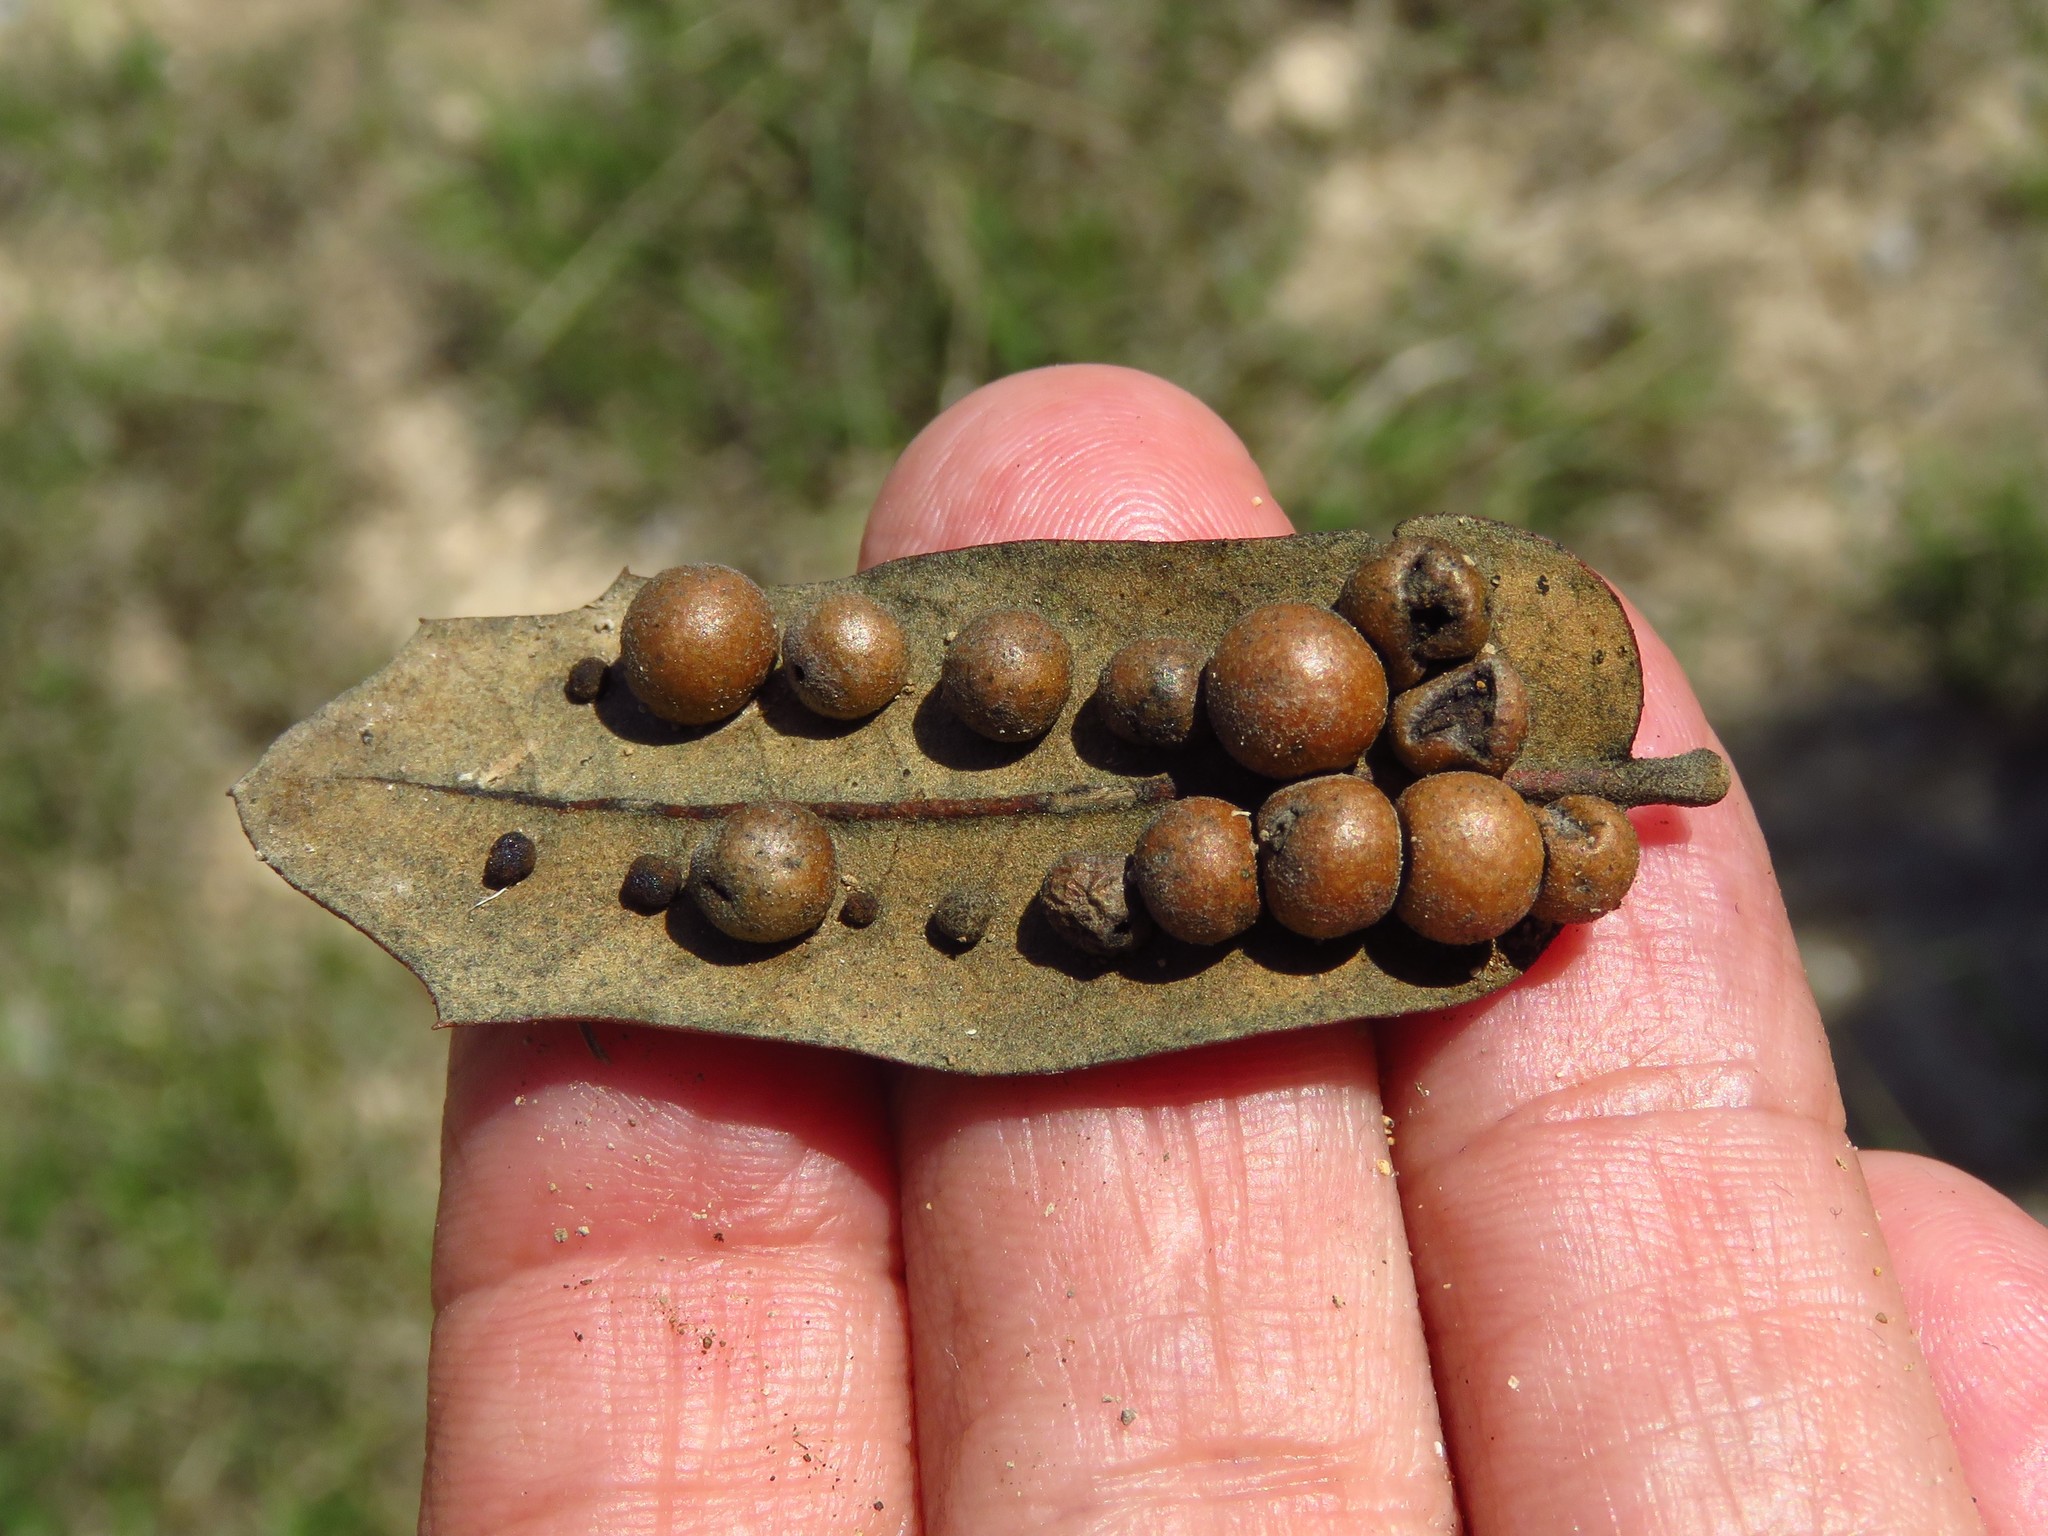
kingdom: Animalia
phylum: Arthropoda
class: Insecta
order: Hymenoptera
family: Cynipidae
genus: Belonocnema
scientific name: Belonocnema kinseyi
